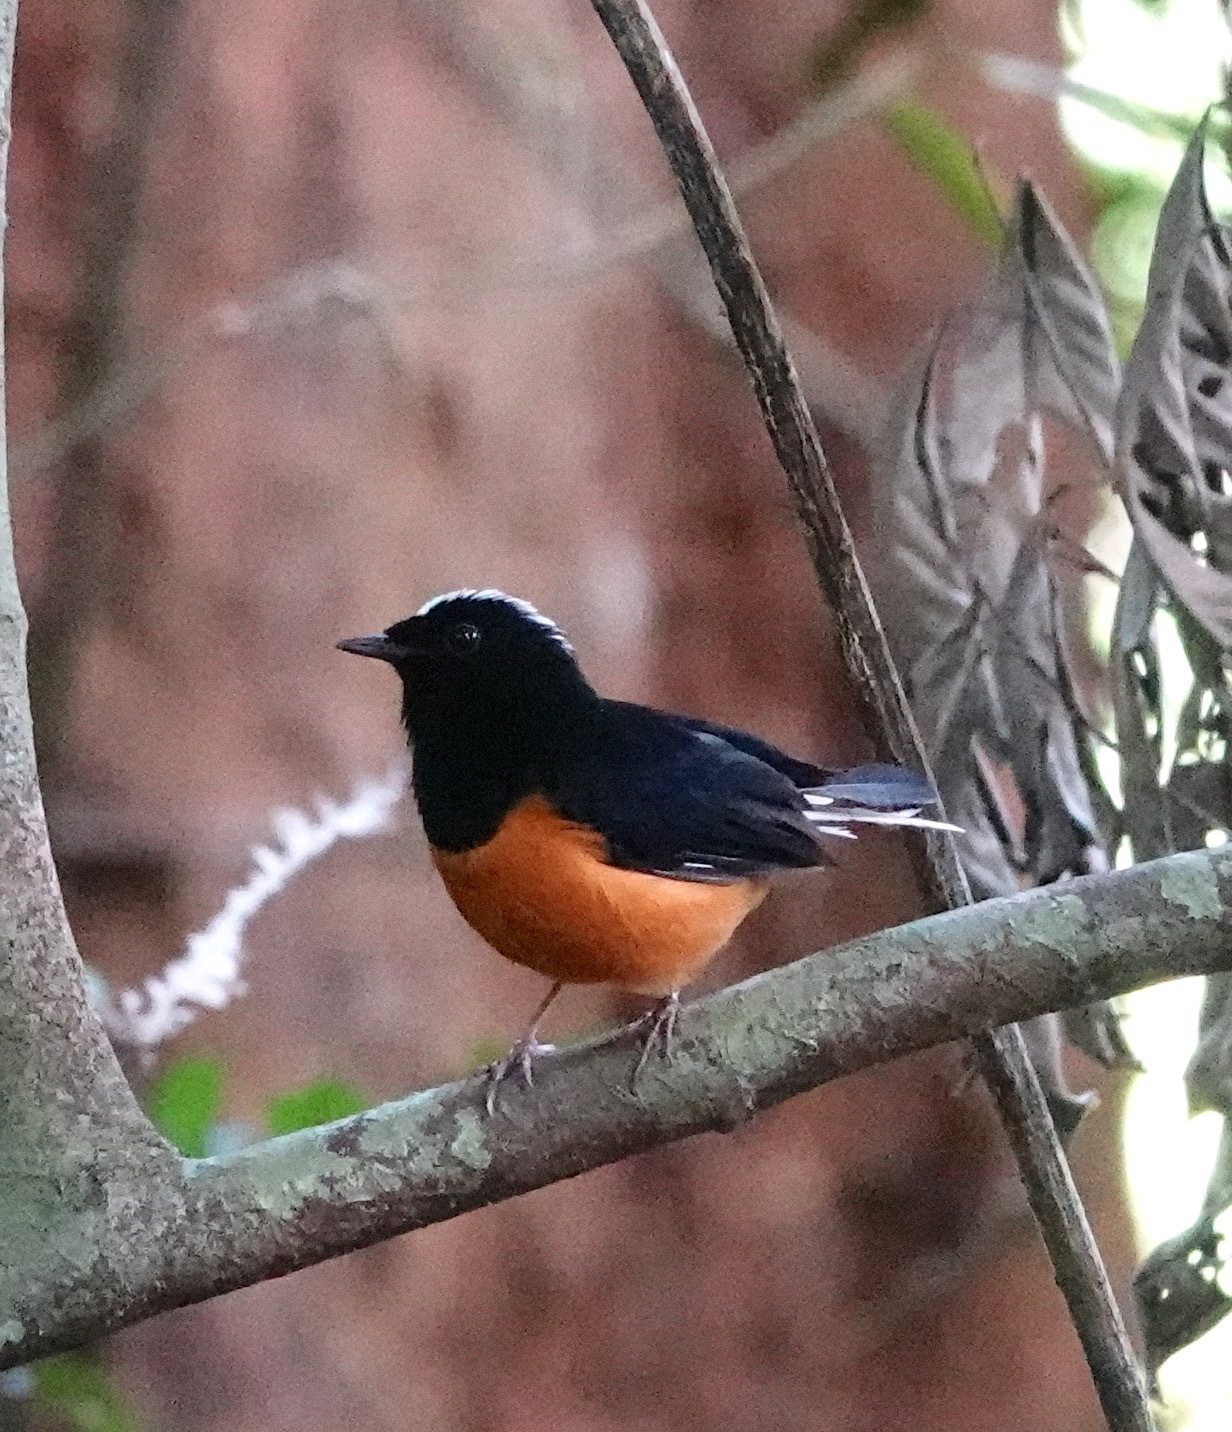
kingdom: Animalia
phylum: Chordata
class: Aves
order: Passeriformes
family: Muscicapidae
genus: Copsychus
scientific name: Copsychus stricklandii
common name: White-crowned shama
